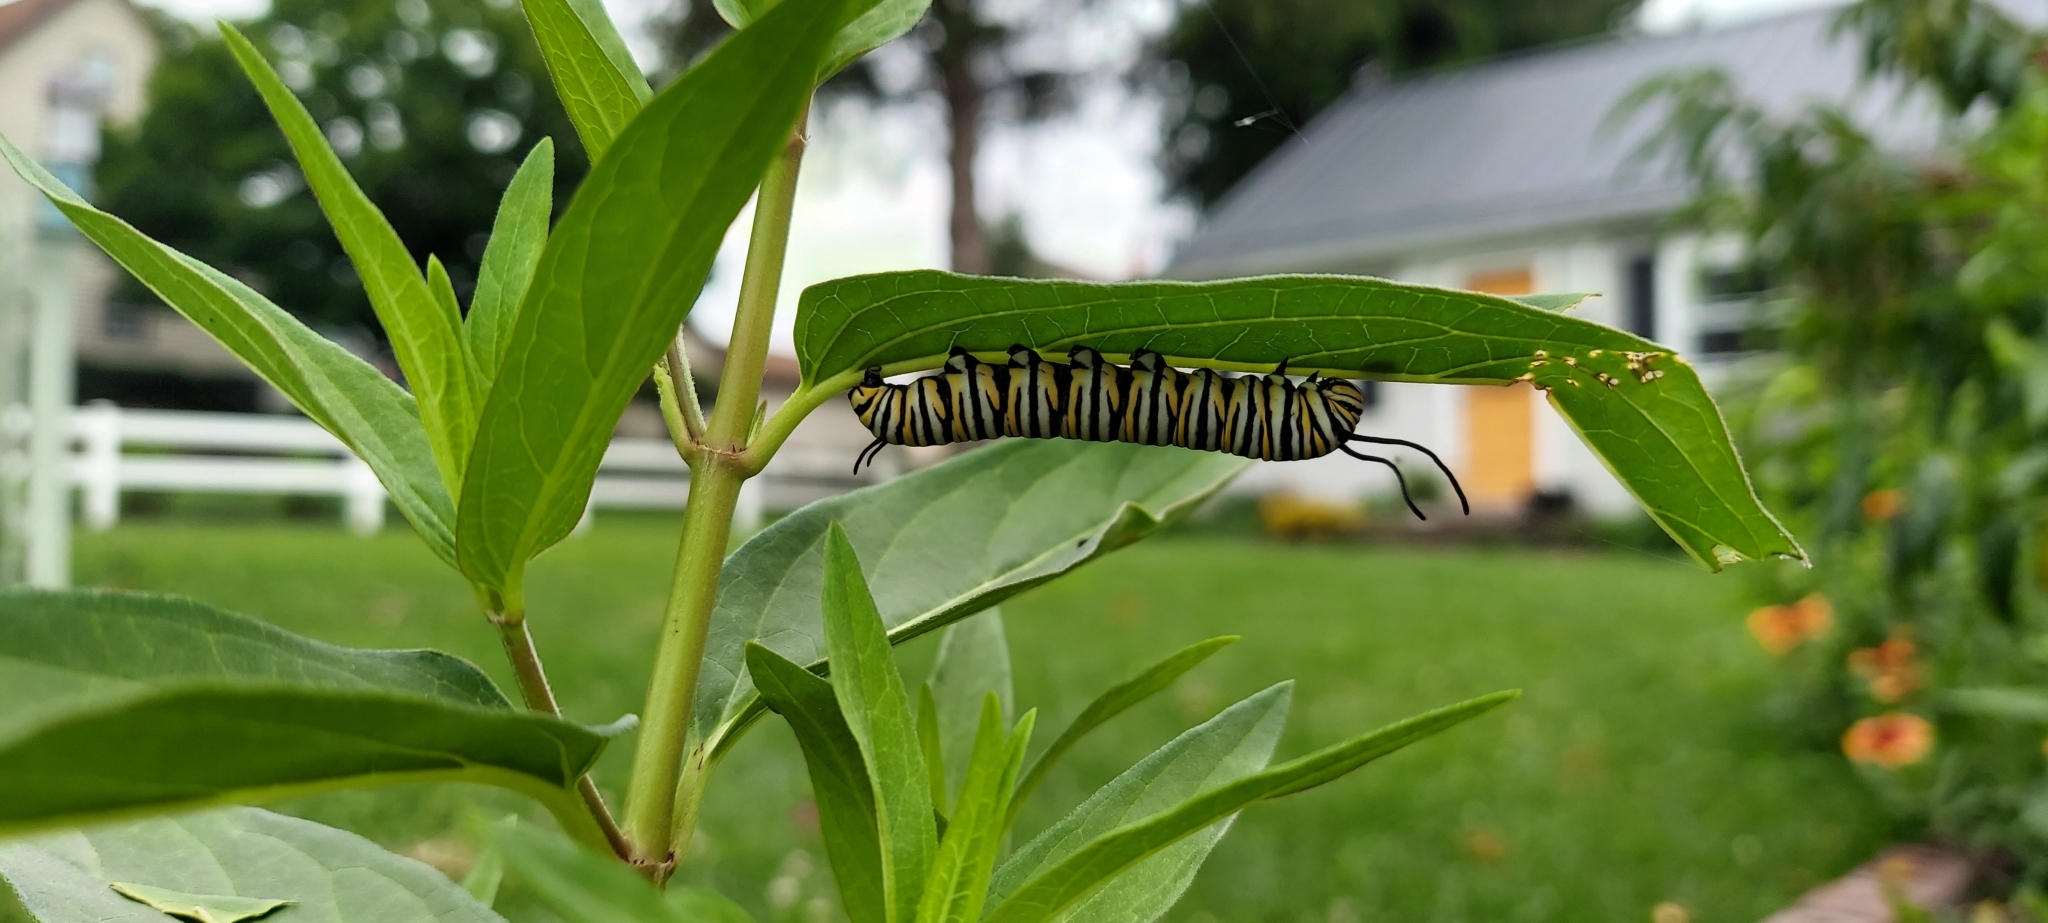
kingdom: Animalia
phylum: Arthropoda
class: Insecta
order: Lepidoptera
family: Nymphalidae
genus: Danaus
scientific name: Danaus plexippus
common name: Monarch
